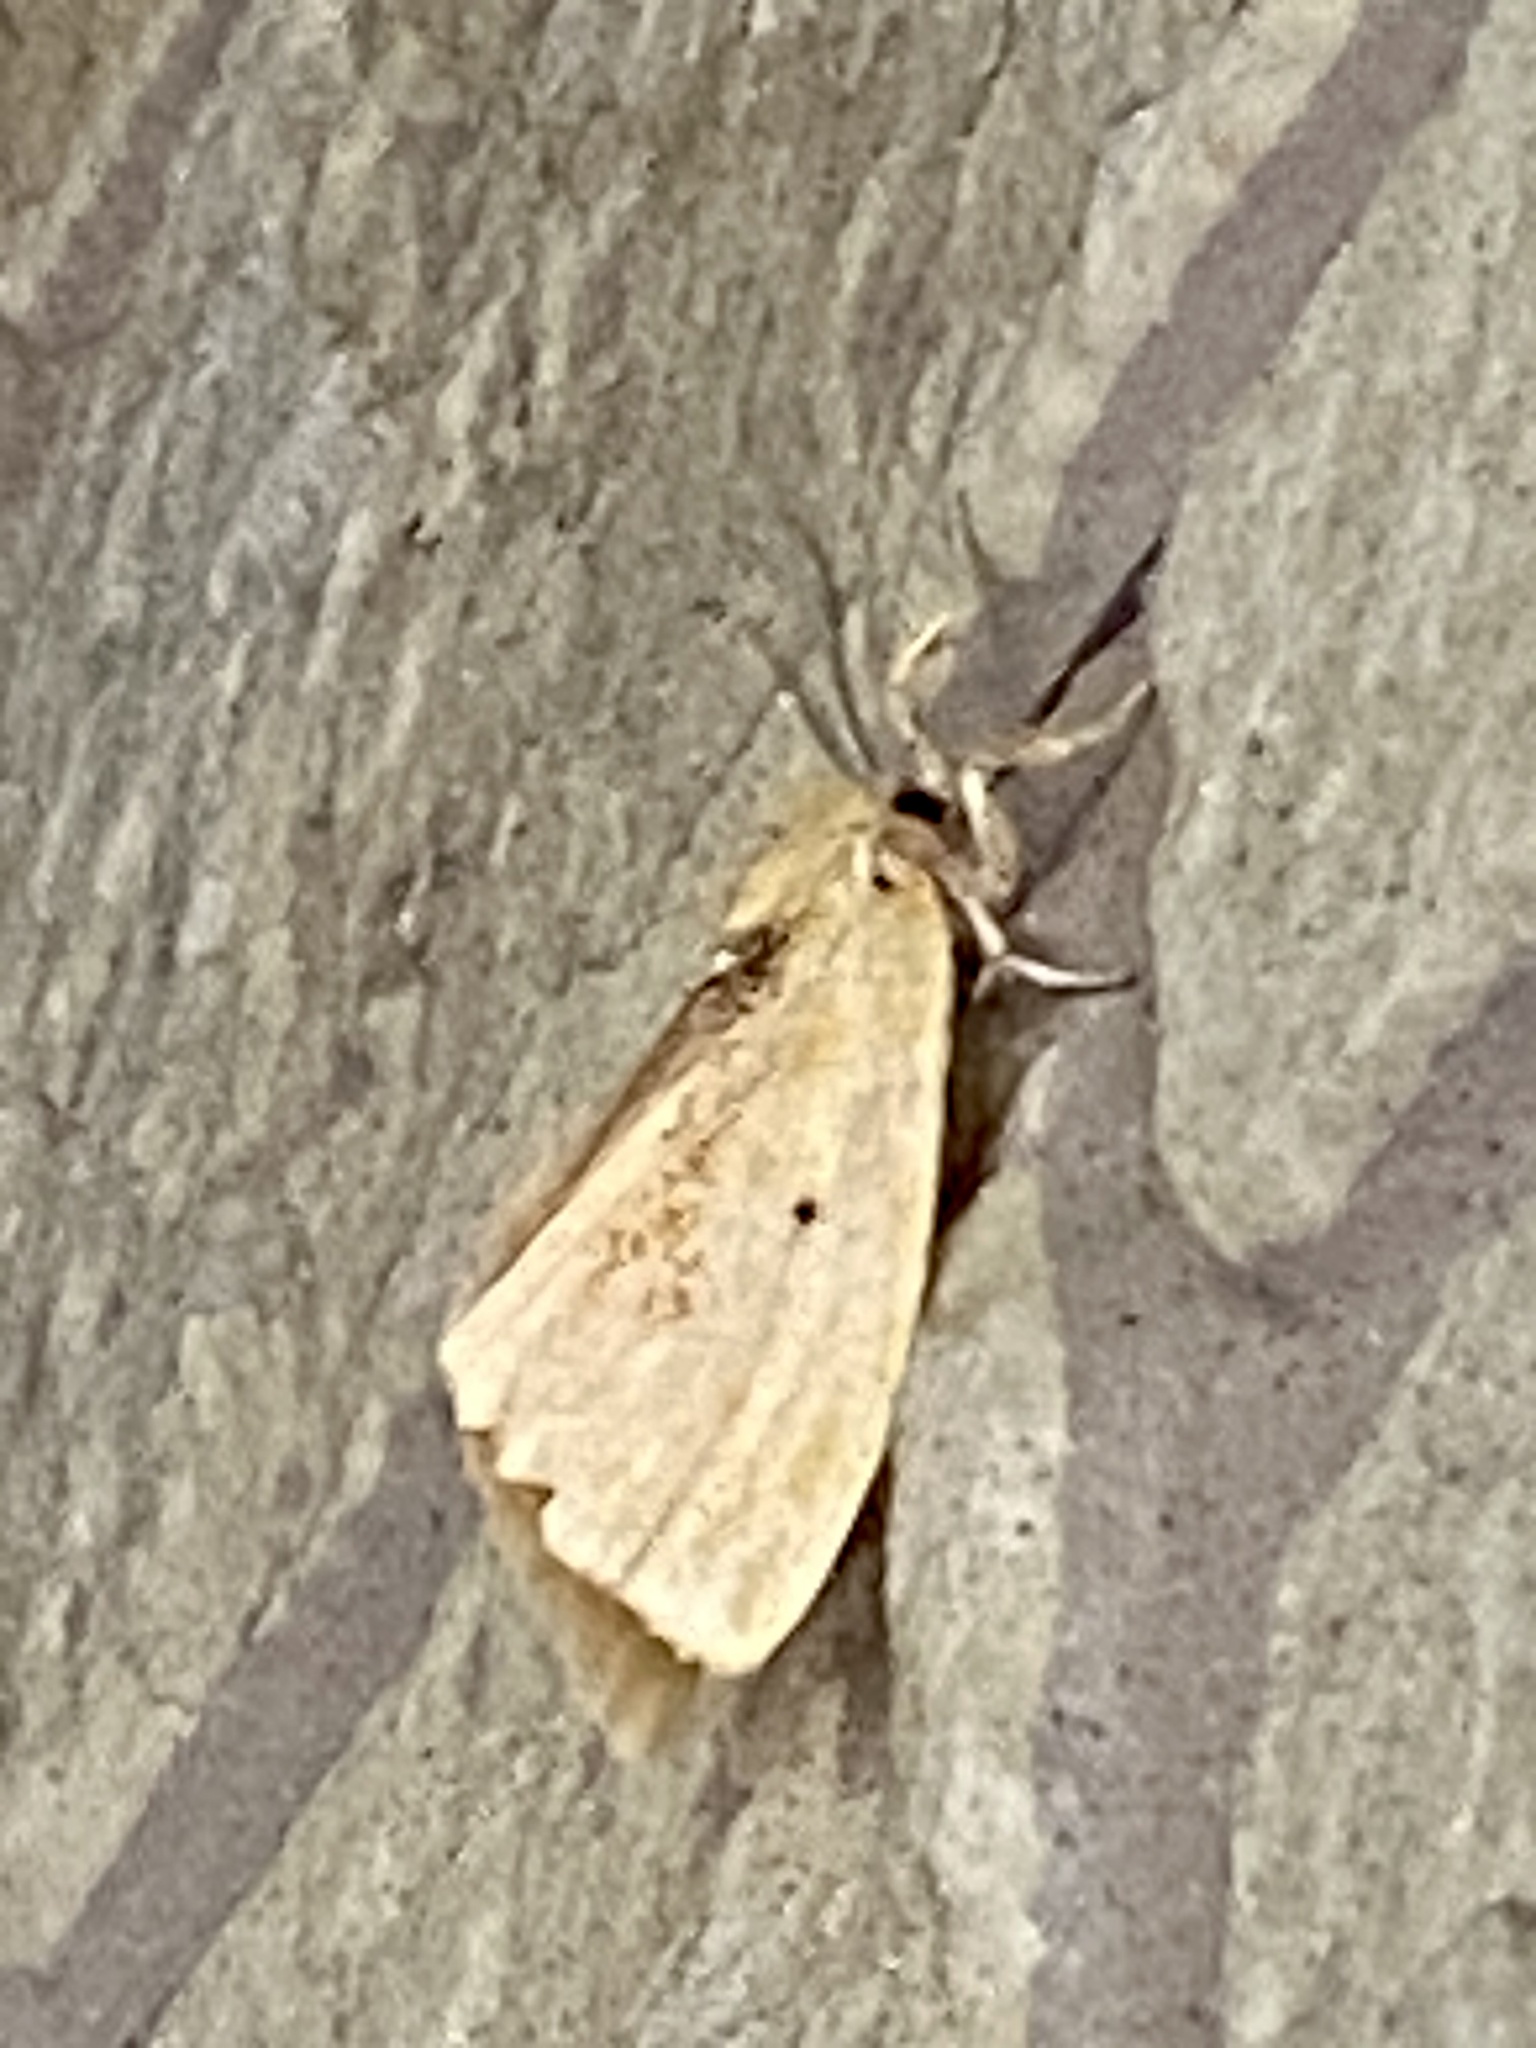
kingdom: Animalia
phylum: Arthropoda
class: Insecta
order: Lepidoptera
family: Erebidae
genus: Kuromondokuga
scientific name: Kuromondokuga niphonis
